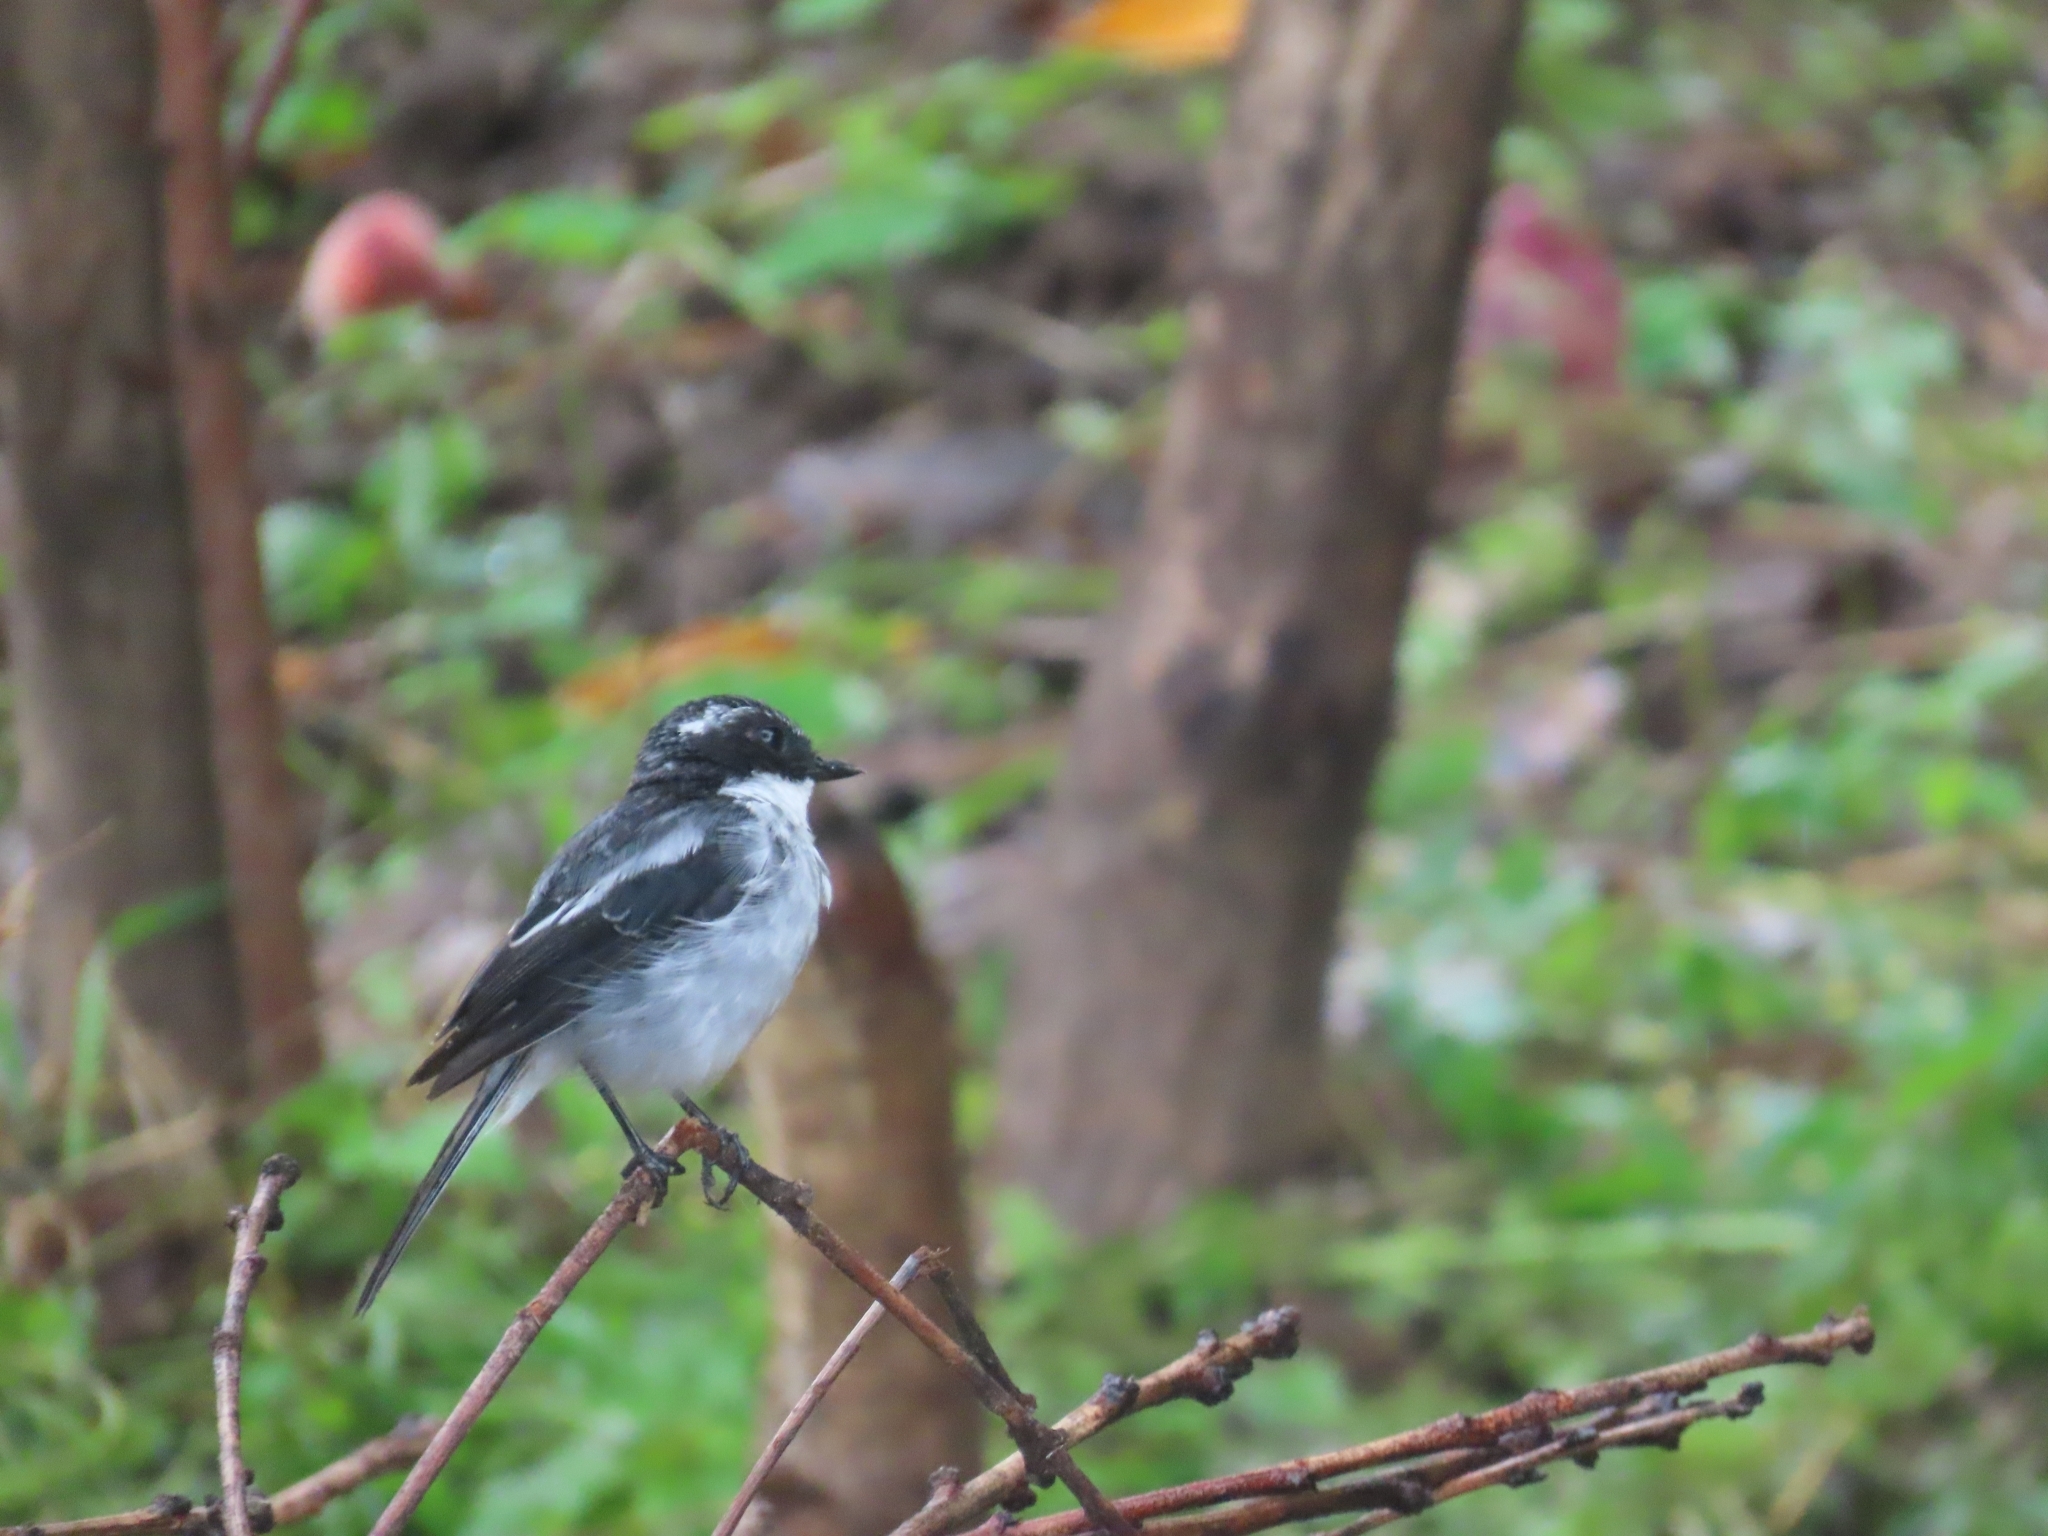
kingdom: Animalia
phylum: Chordata
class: Aves
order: Passeriformes
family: Muscicapidae
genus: Saxicola
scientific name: Saxicola ferreus
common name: Grey bush chat
